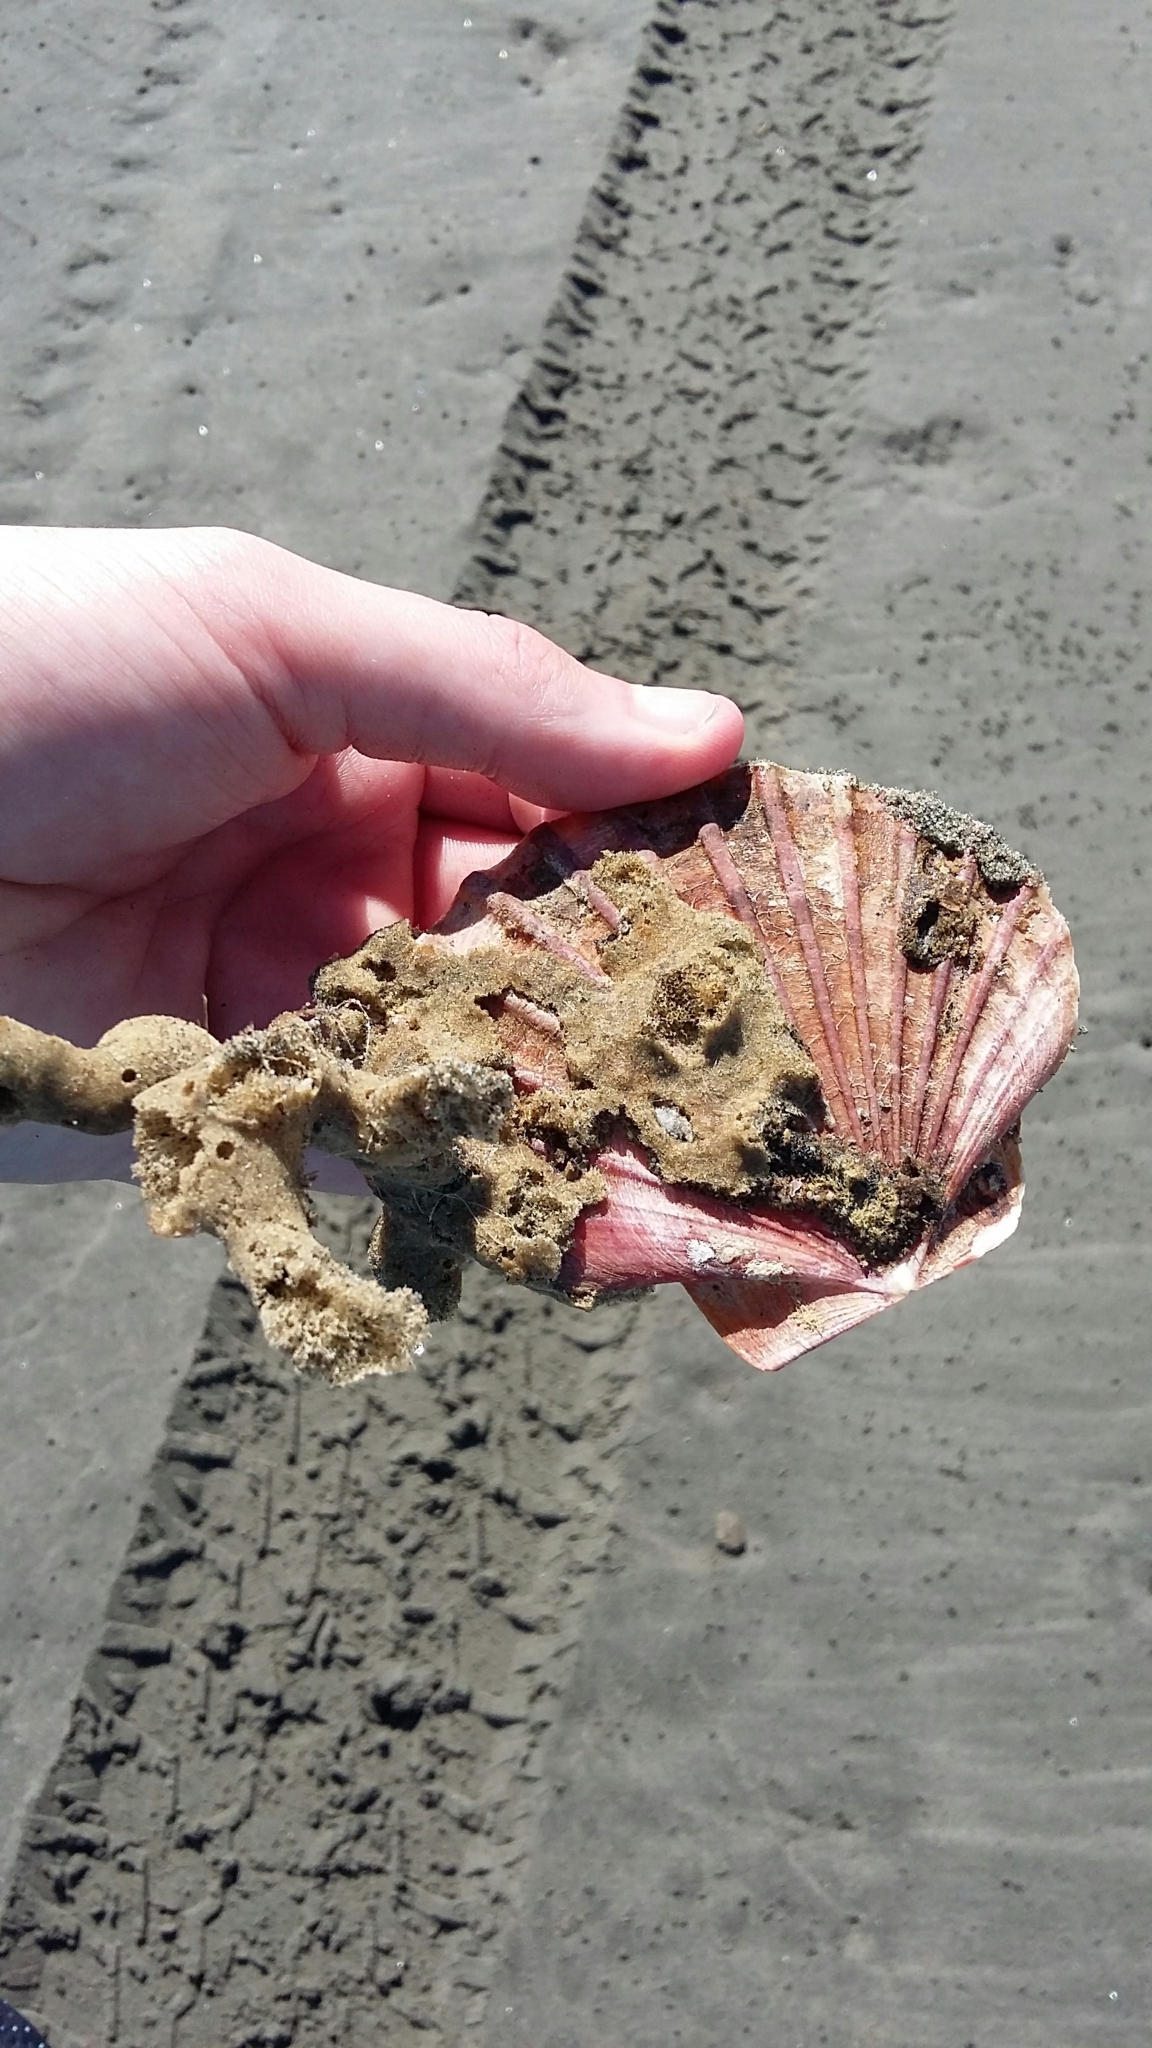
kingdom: Animalia
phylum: Mollusca
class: Bivalvia
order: Pectinida
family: Pectinidae
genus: Pecten
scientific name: Pecten novaezelandiae
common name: New zealand scallop
